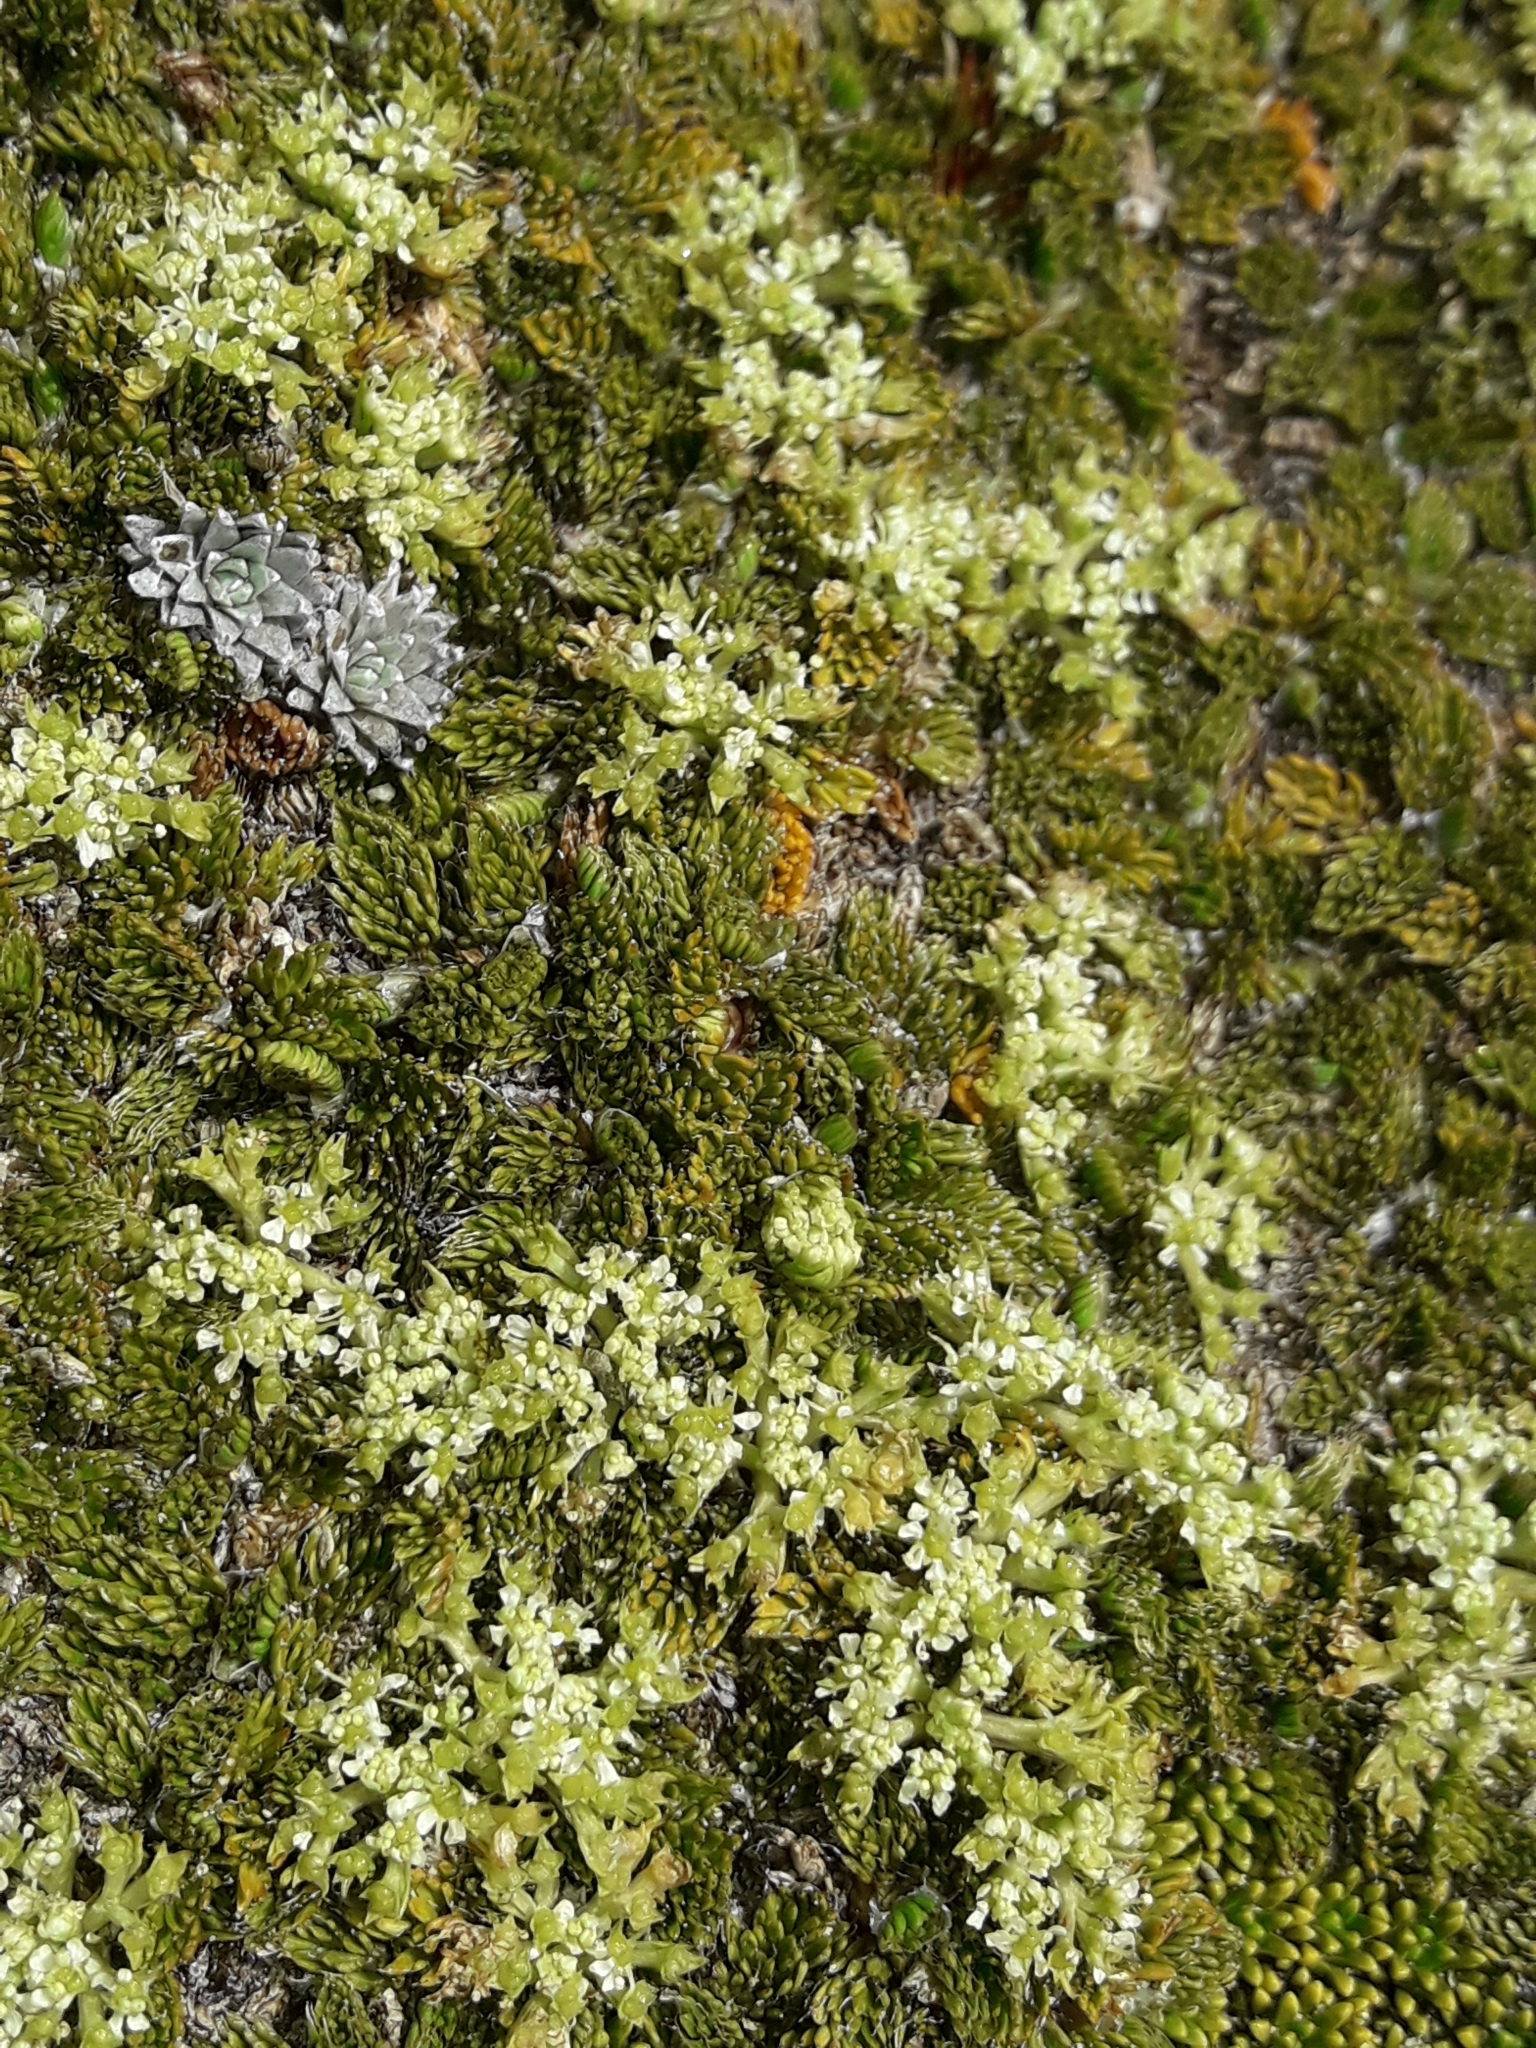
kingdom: Plantae
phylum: Tracheophyta
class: Magnoliopsida
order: Apiales
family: Apiaceae
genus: Anisotome
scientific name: Anisotome imbricata
